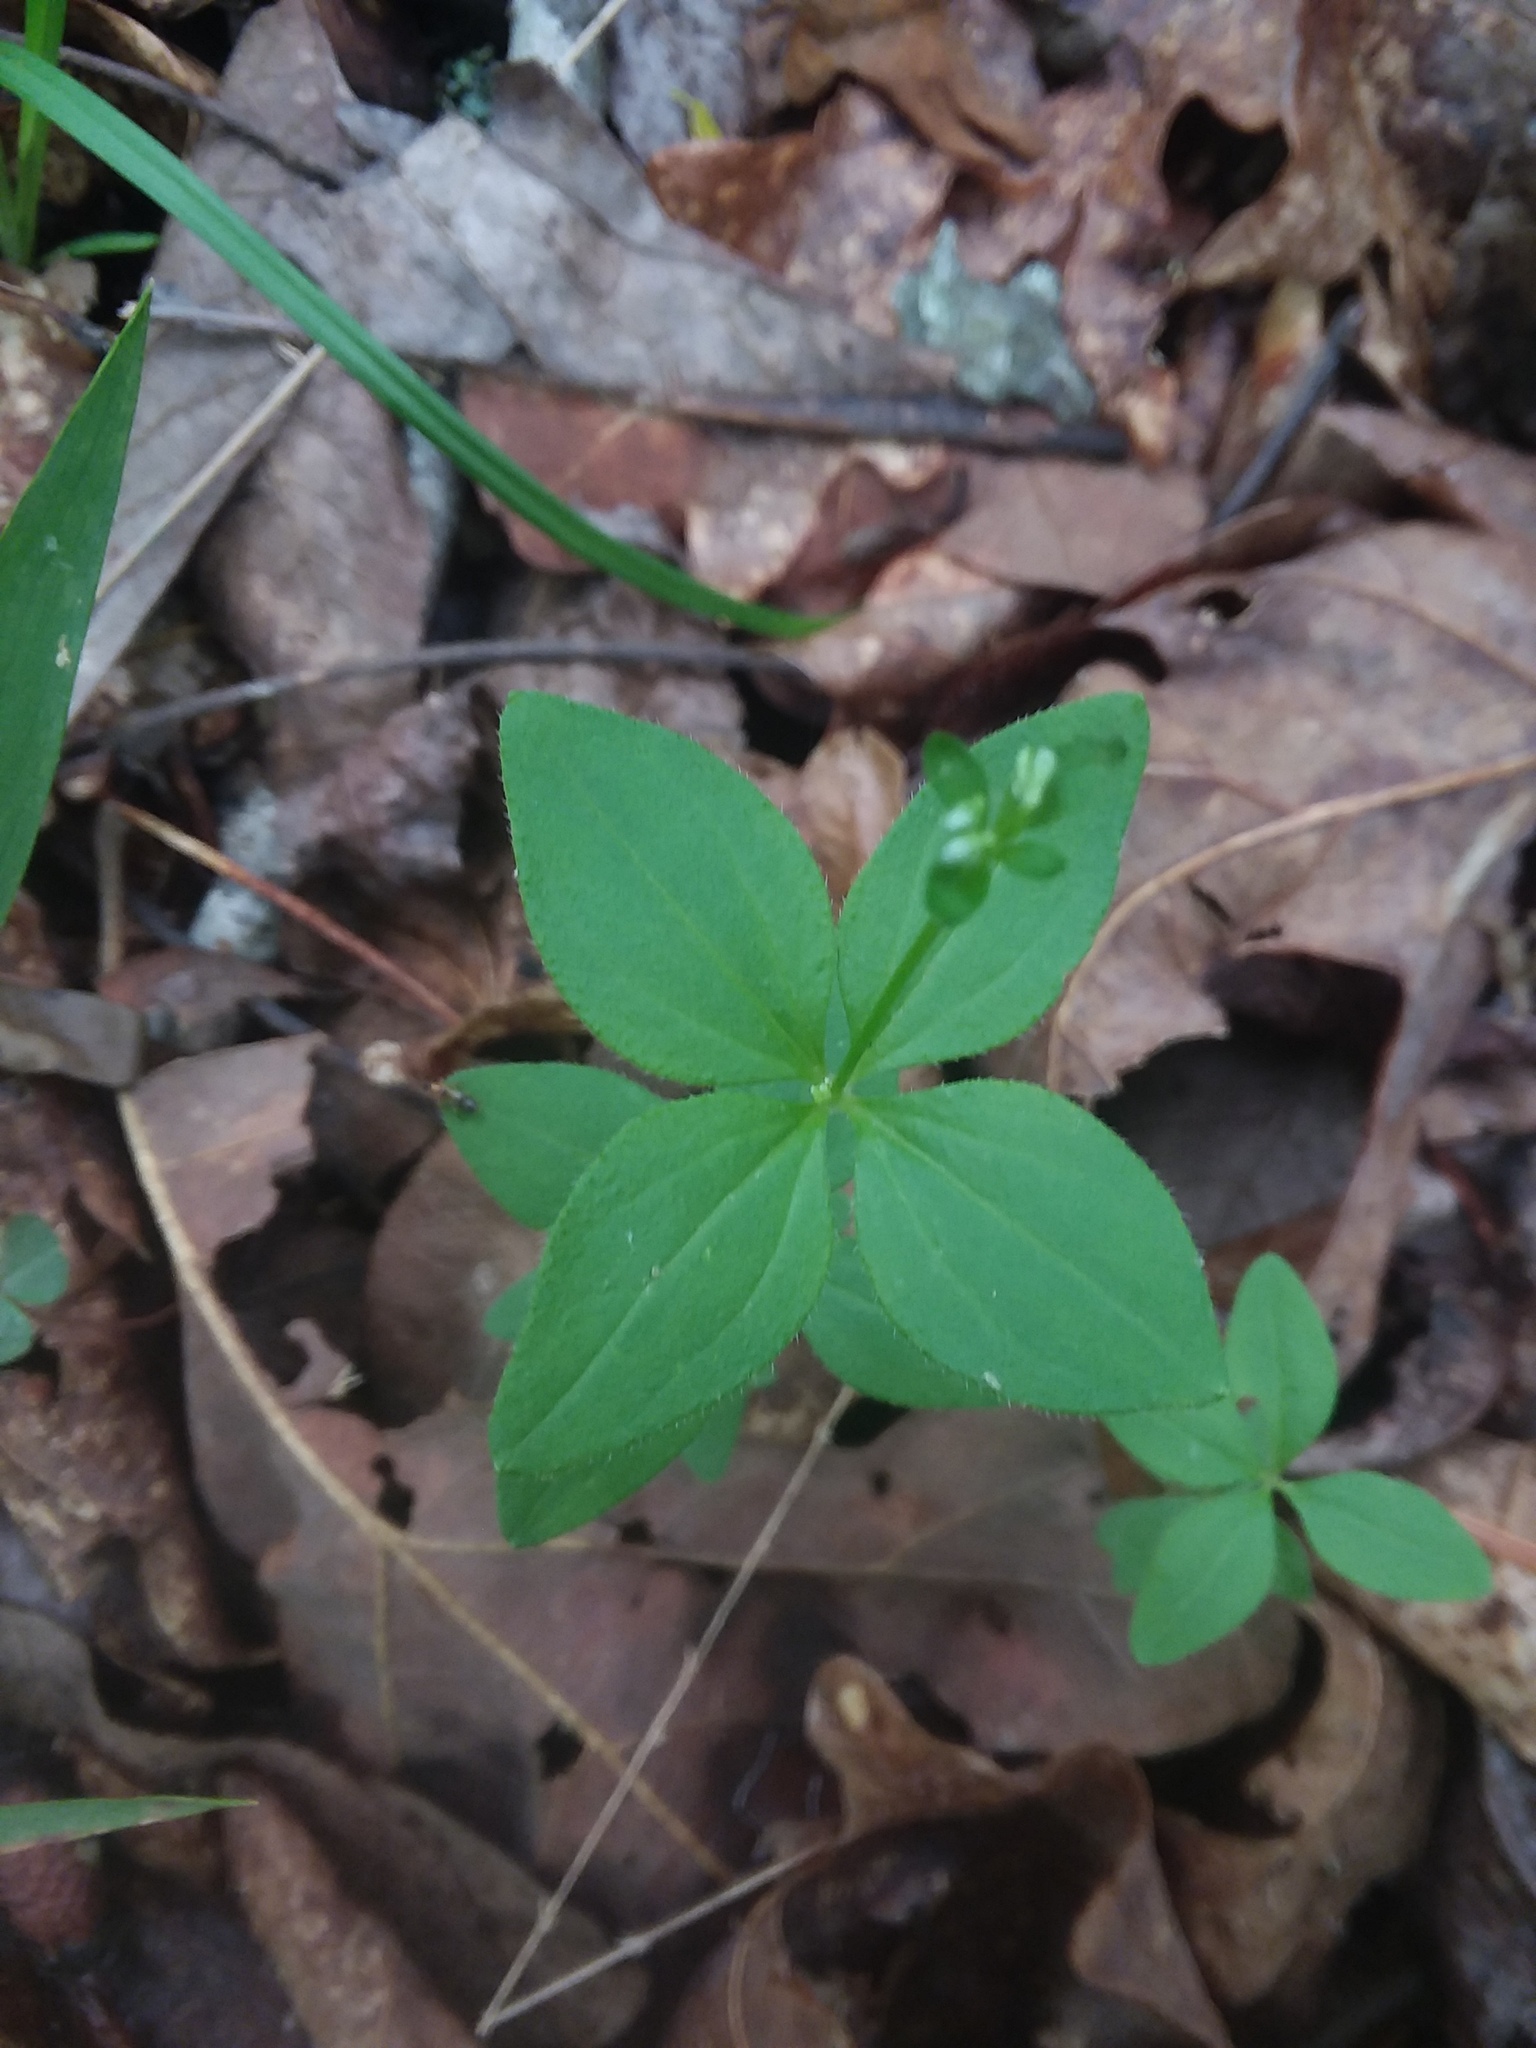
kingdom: Plantae
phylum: Tracheophyta
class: Magnoliopsida
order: Gentianales
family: Rubiaceae
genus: Galium
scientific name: Galium circaezans
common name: Forest bedstraw
